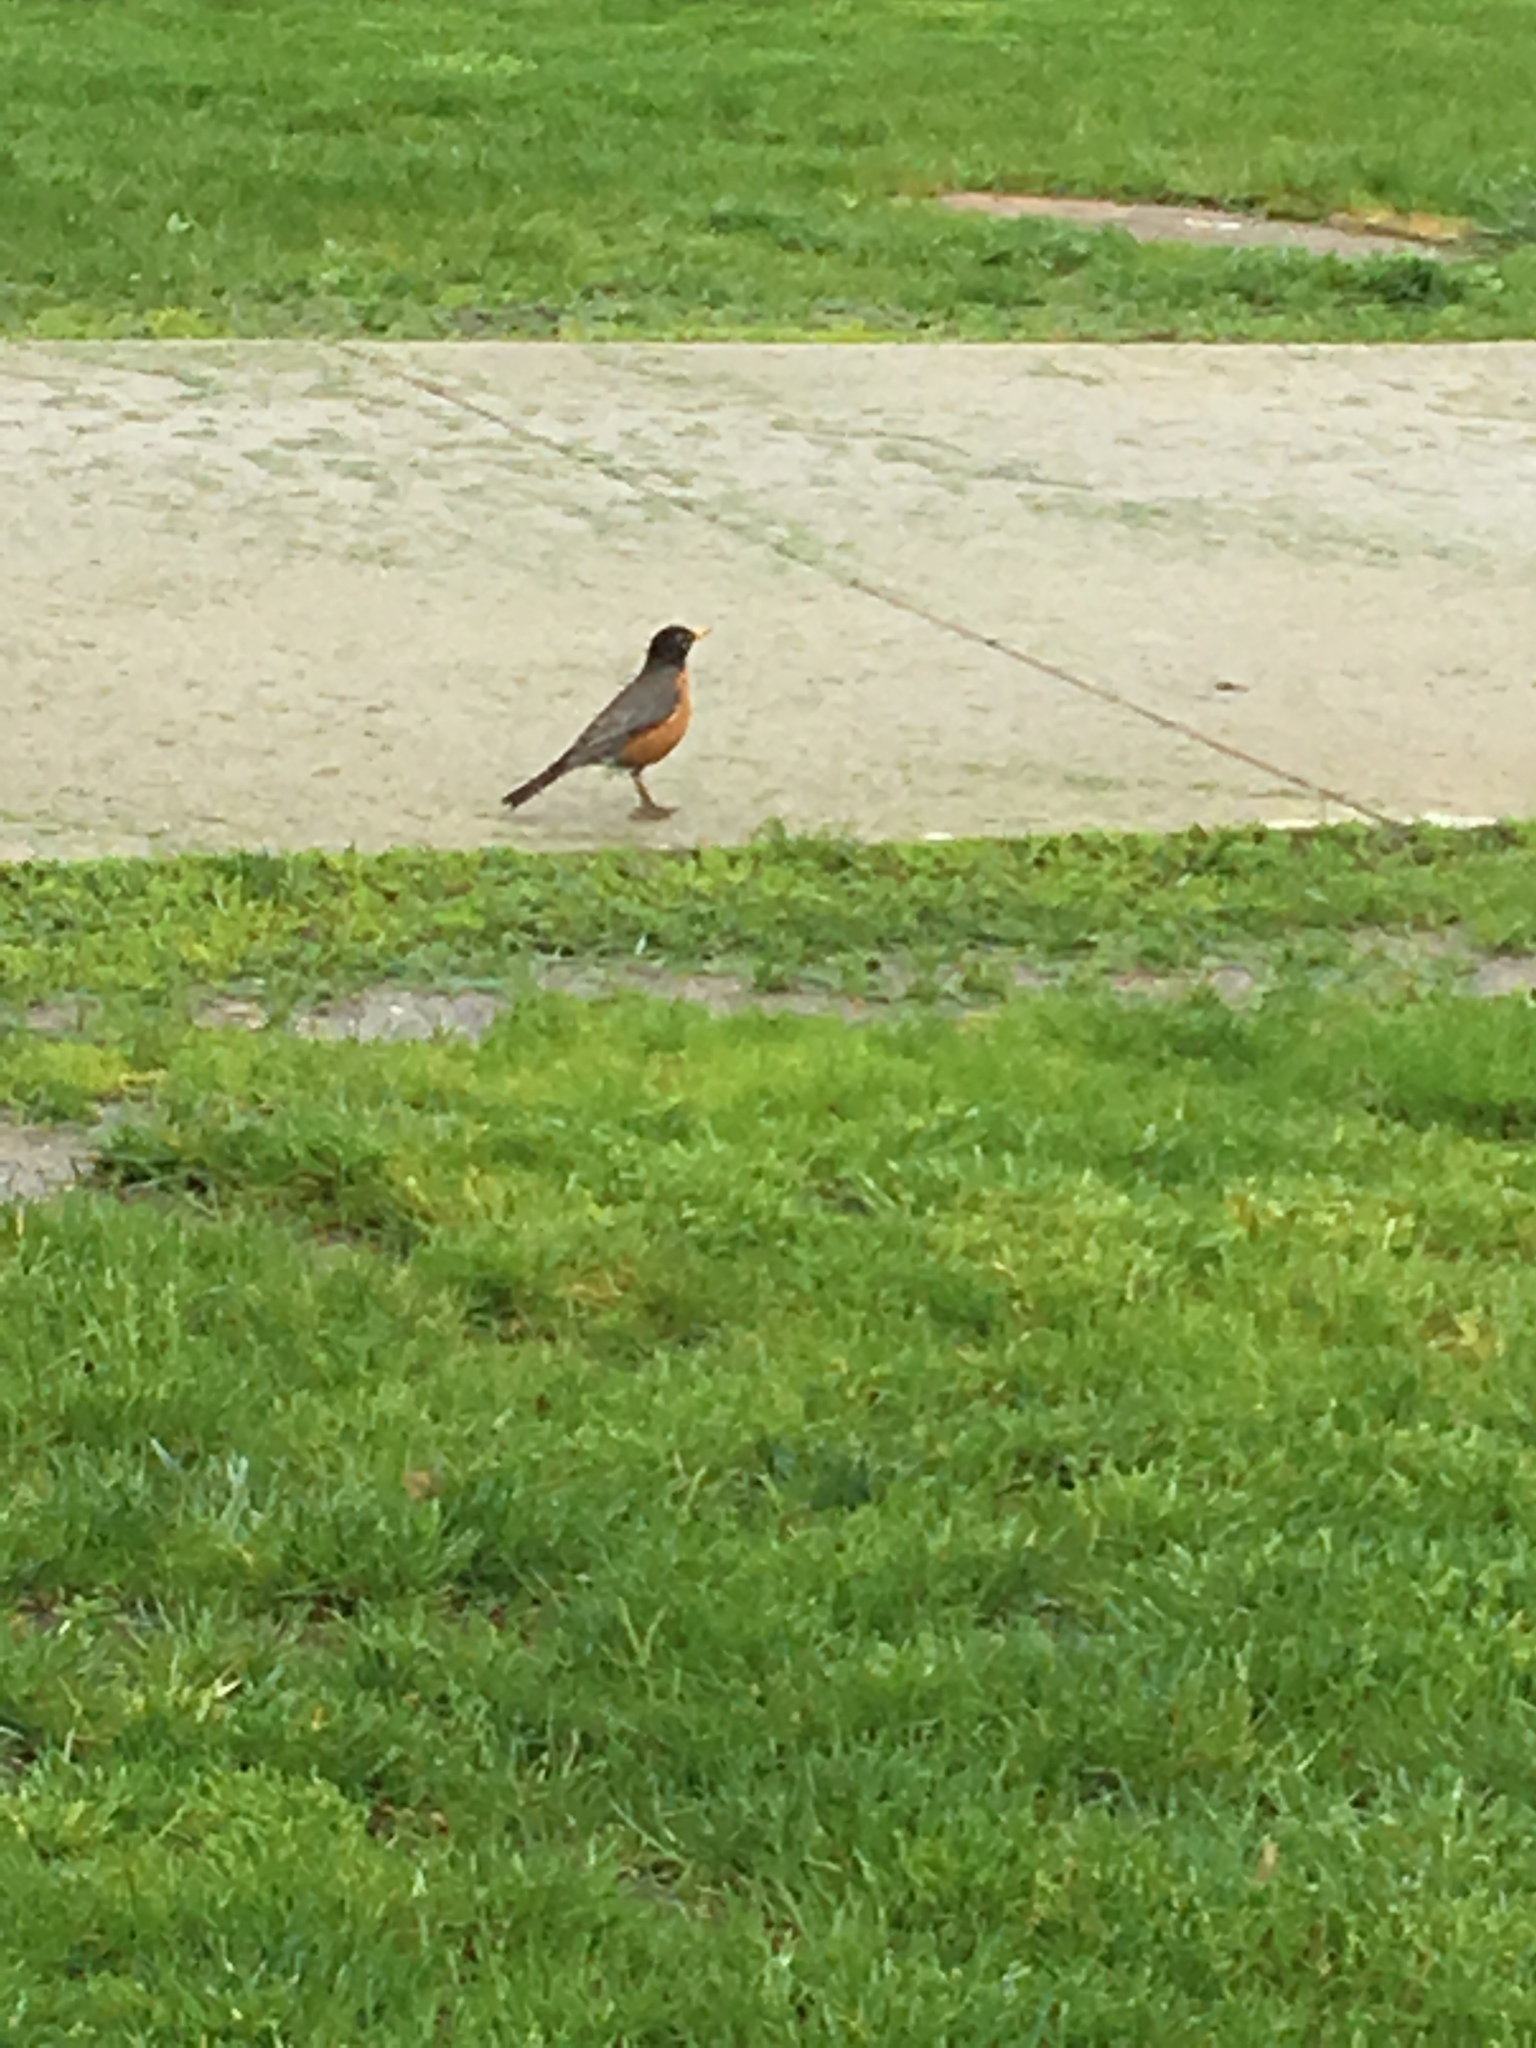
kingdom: Animalia
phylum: Chordata
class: Aves
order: Passeriformes
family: Turdidae
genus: Turdus
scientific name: Turdus migratorius
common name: American robin
